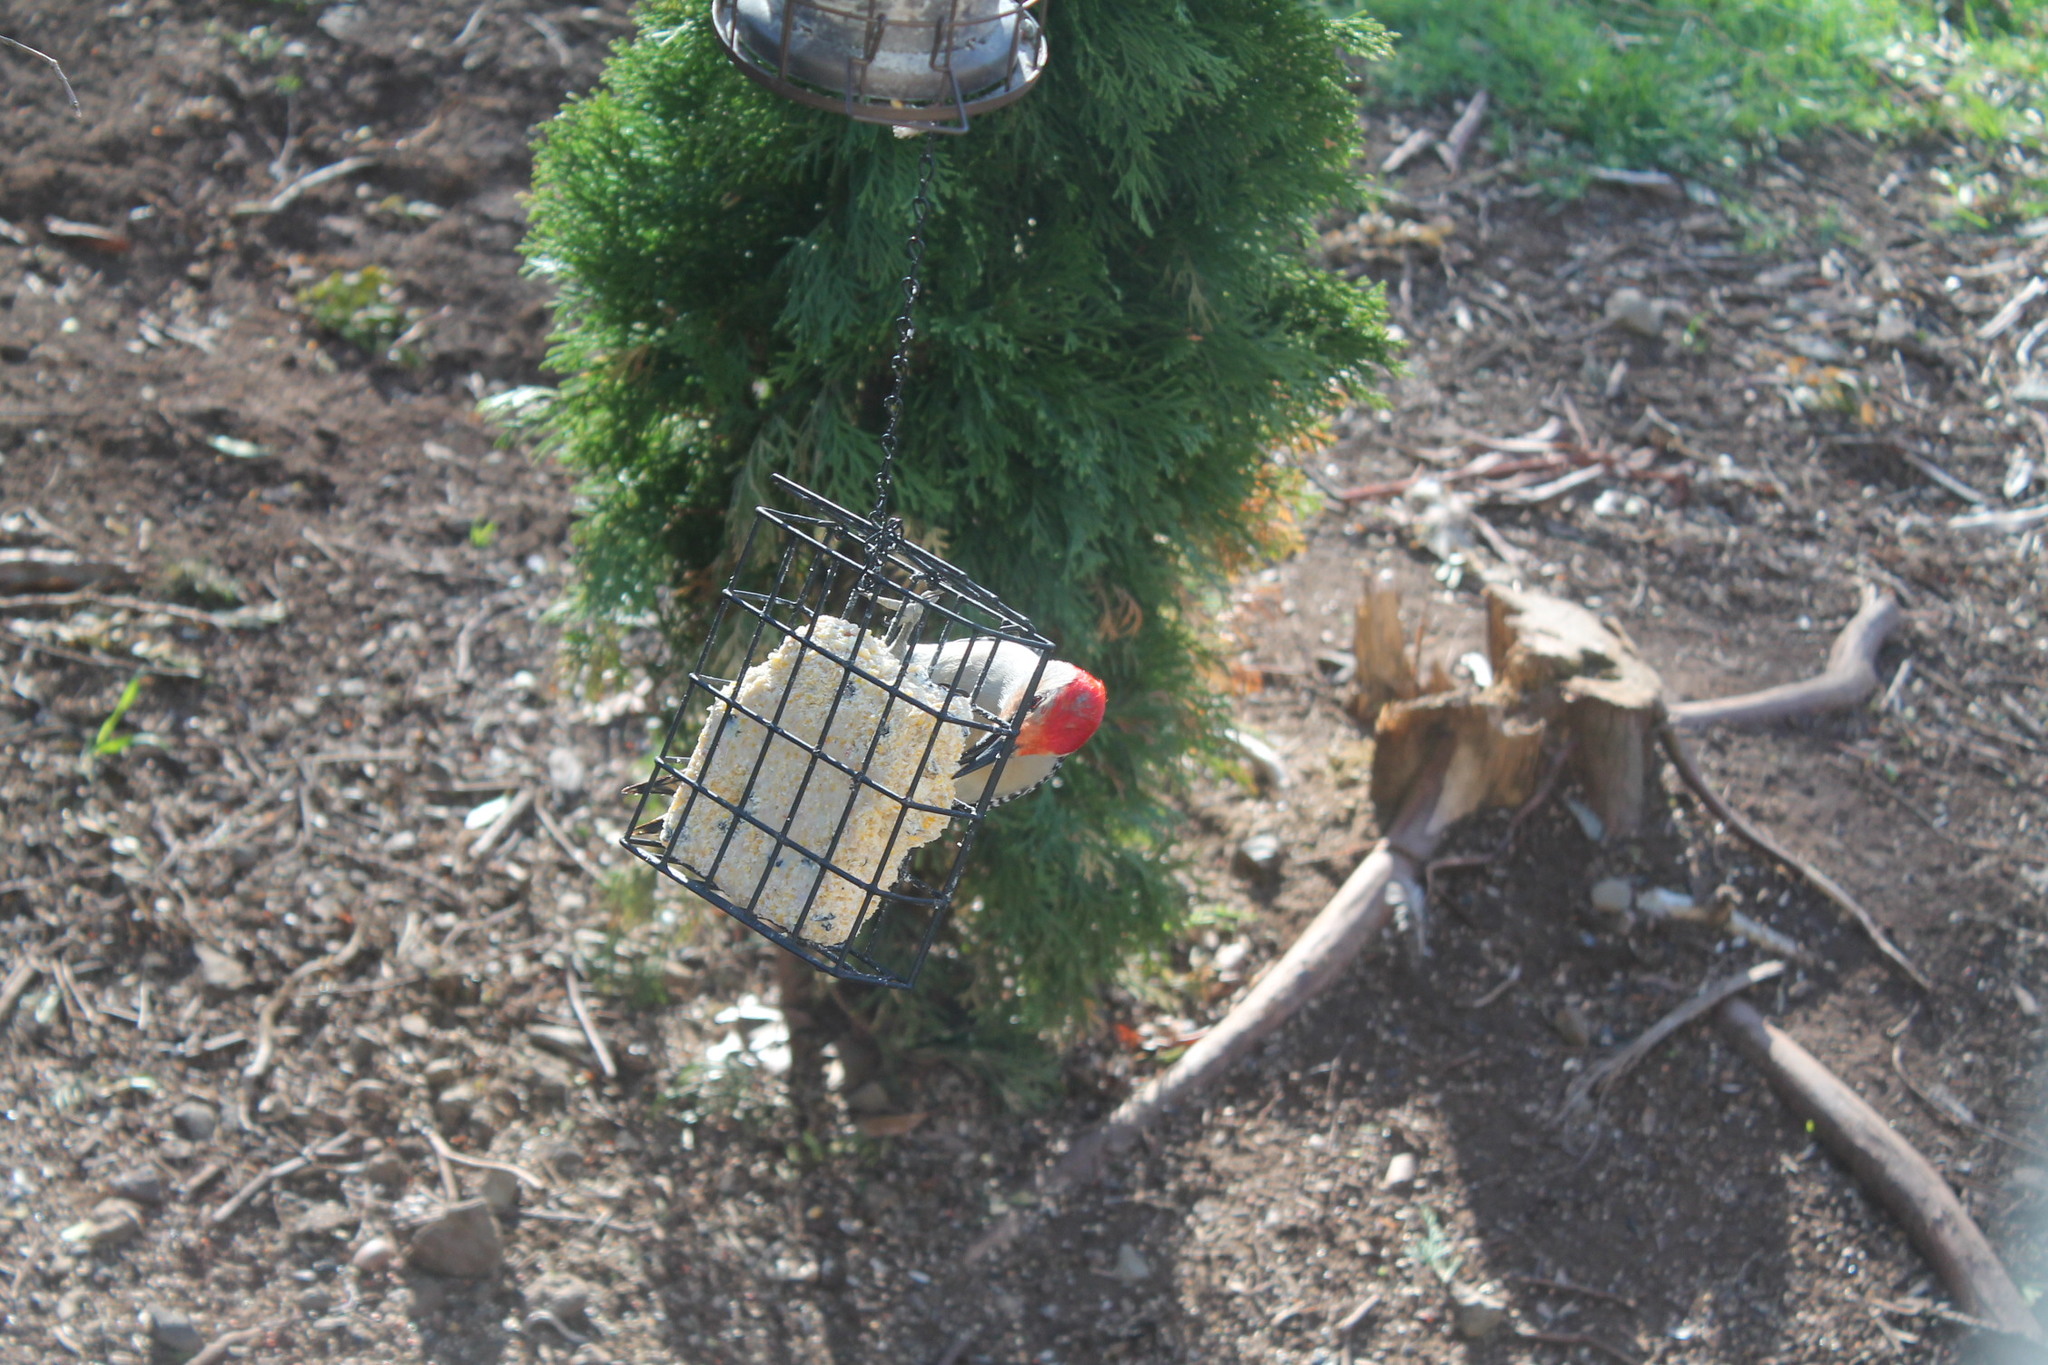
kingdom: Animalia
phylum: Chordata
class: Aves
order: Piciformes
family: Picidae
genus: Melanerpes
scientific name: Melanerpes carolinus
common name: Red-bellied woodpecker
